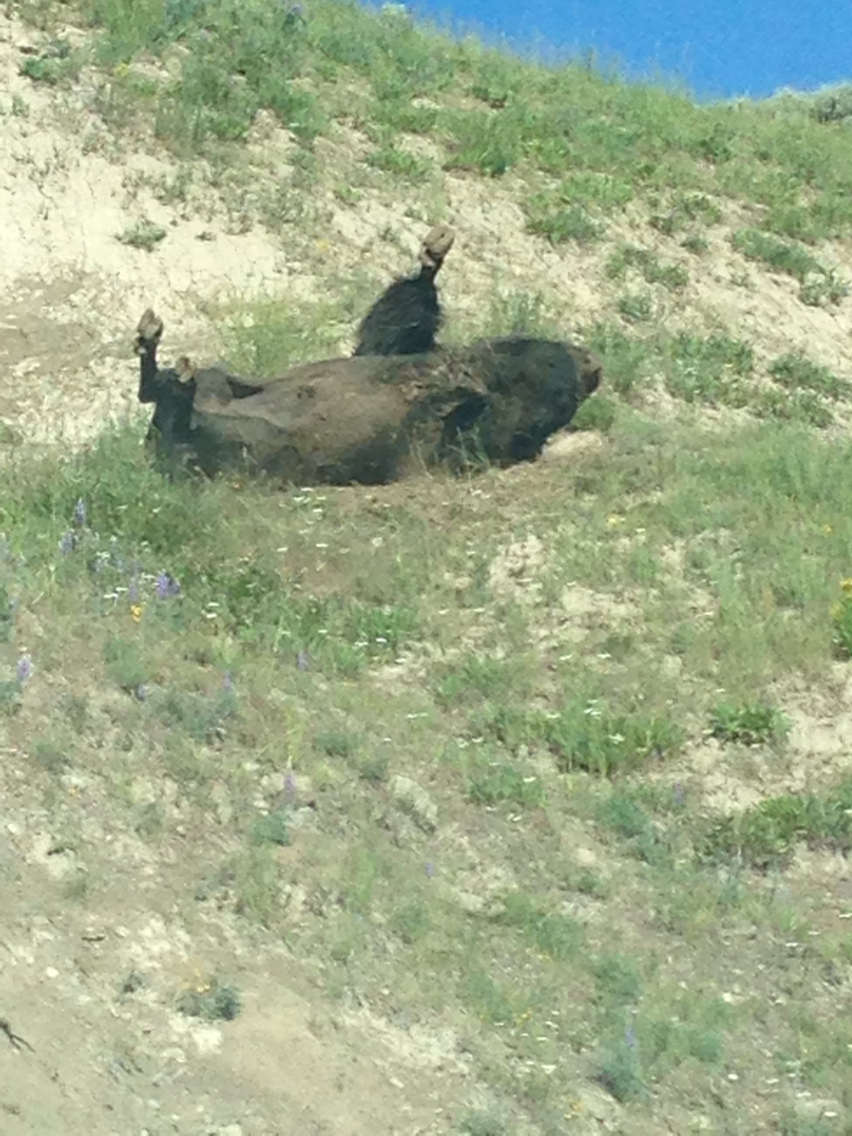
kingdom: Animalia
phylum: Chordata
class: Mammalia
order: Artiodactyla
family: Bovidae
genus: Bison
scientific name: Bison bison
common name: American bison
